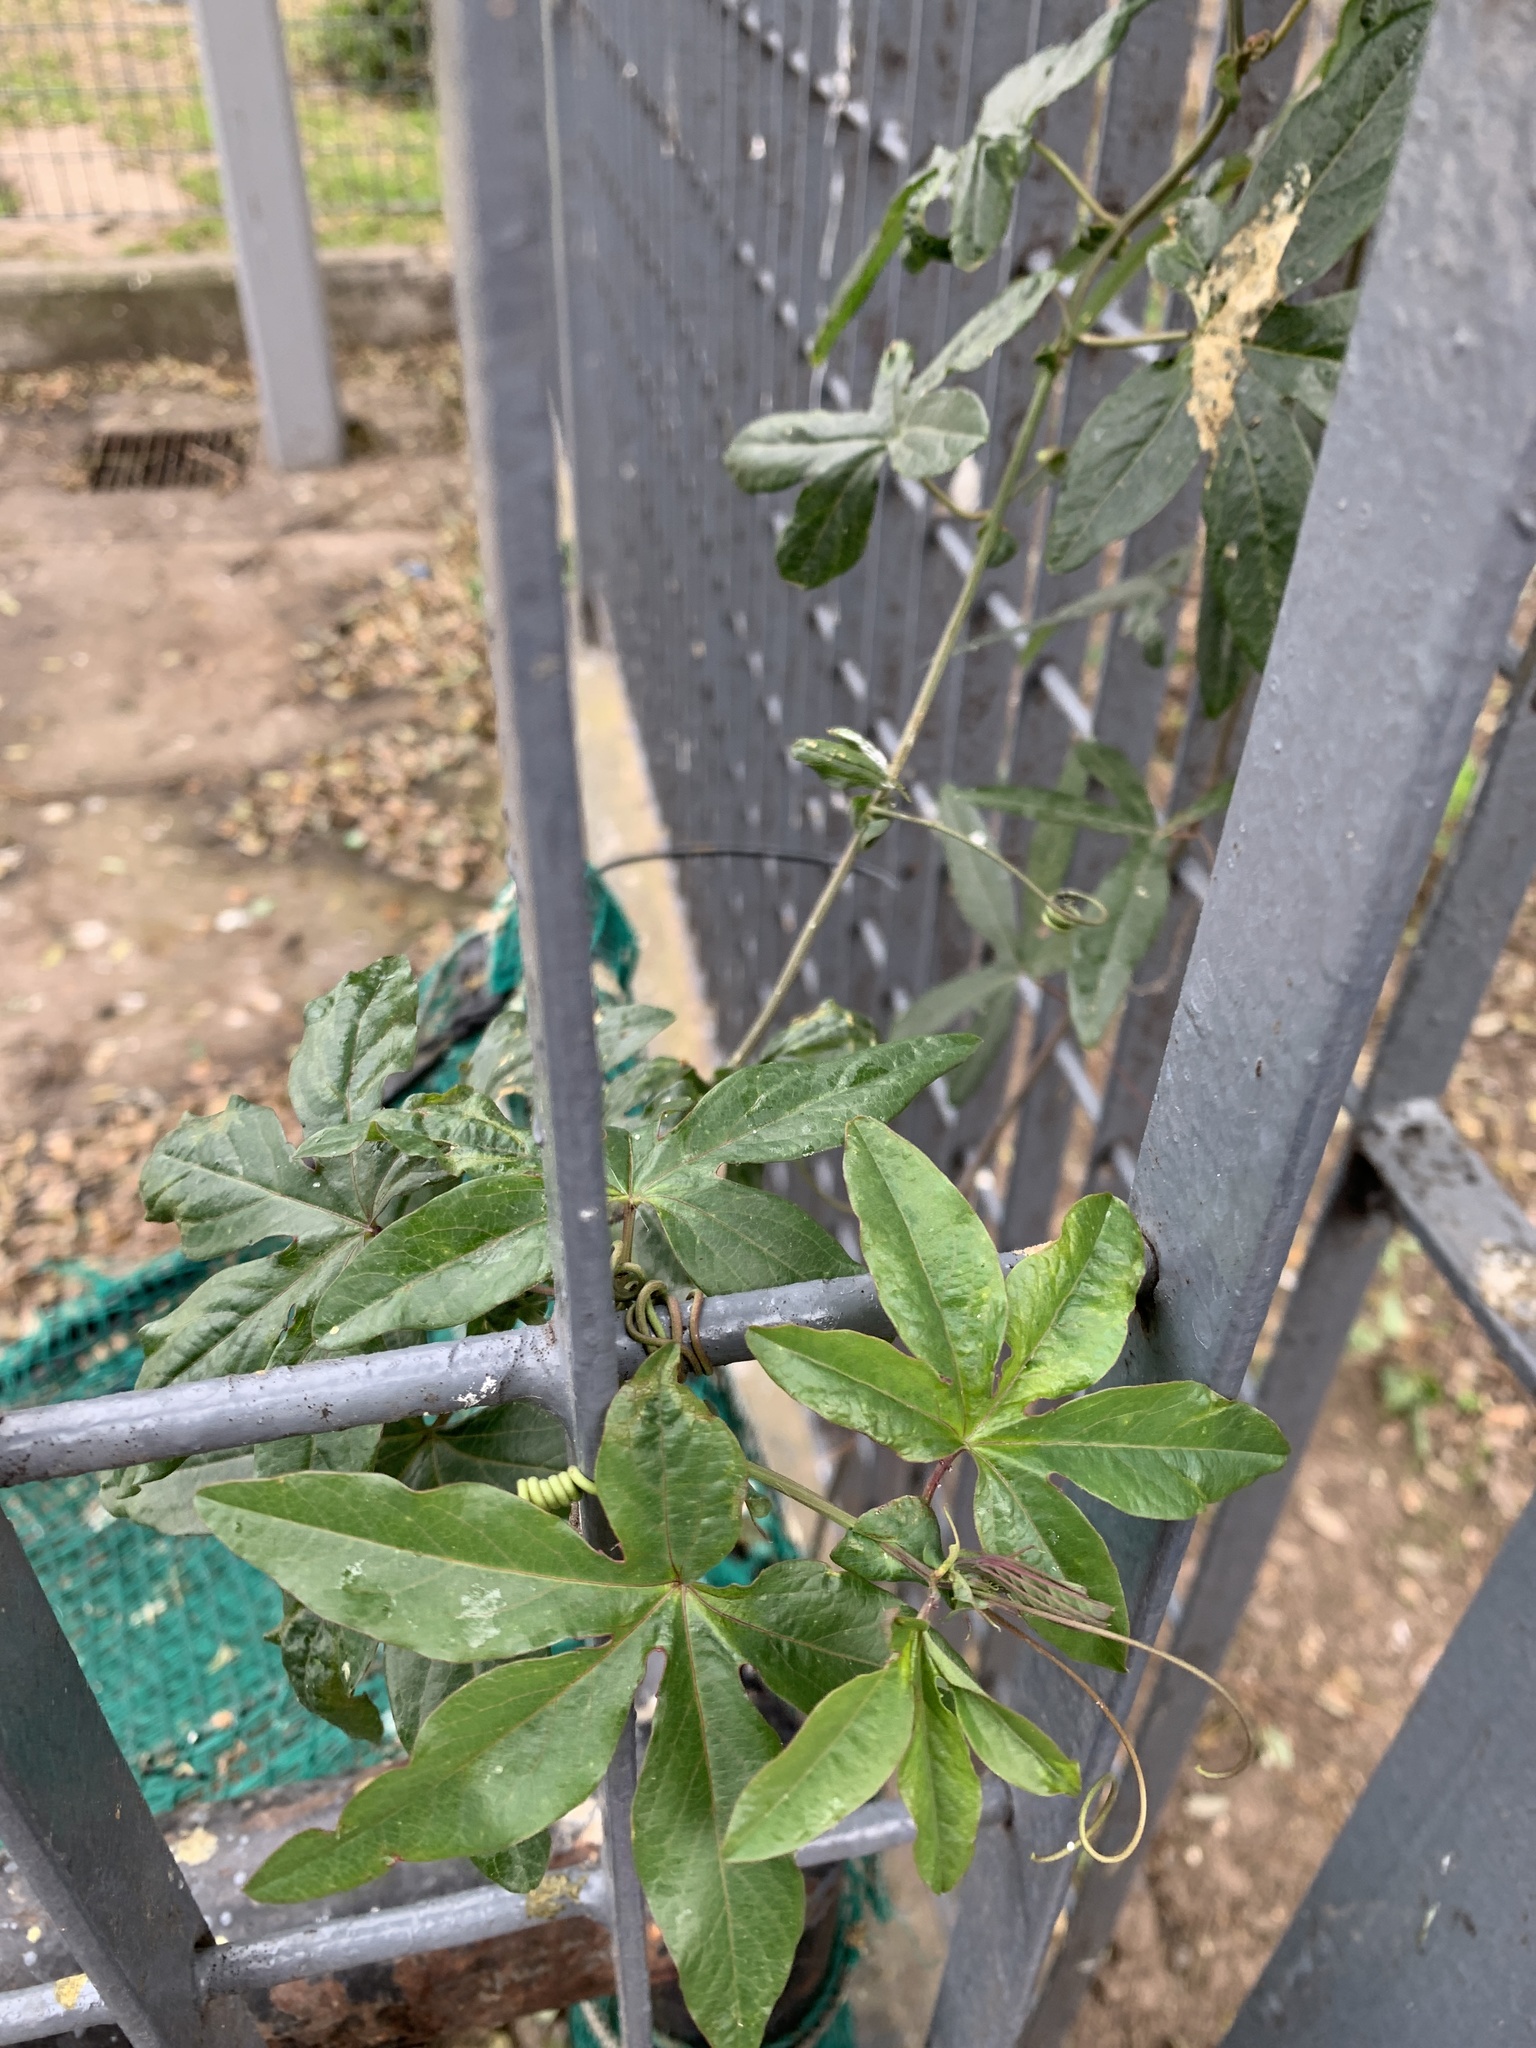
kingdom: Plantae
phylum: Tracheophyta
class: Magnoliopsida
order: Malpighiales
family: Passifloraceae
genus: Passiflora
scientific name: Passiflora caerulea
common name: Blue passionflower
